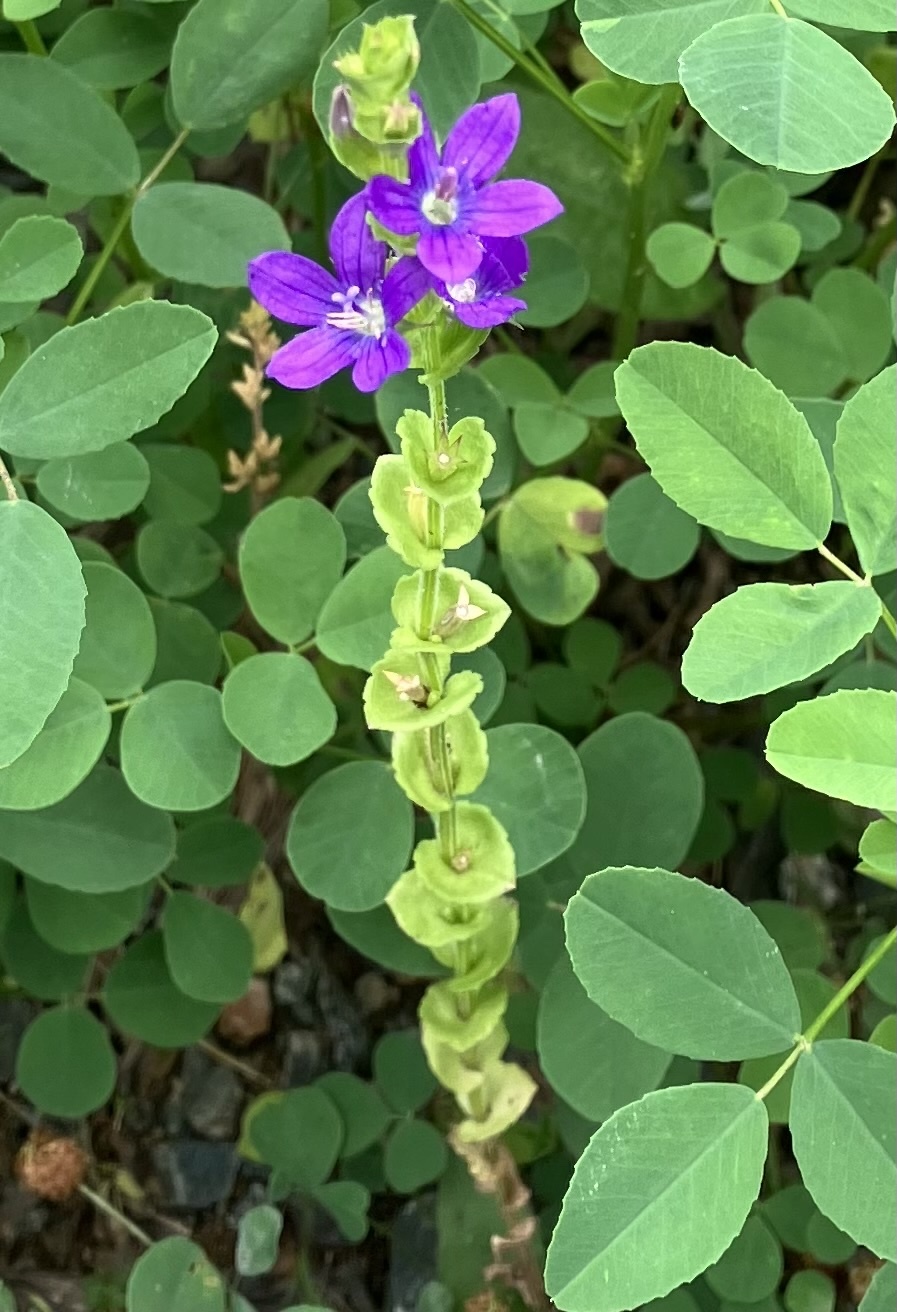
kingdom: Plantae
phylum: Tracheophyta
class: Magnoliopsida
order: Asterales
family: Campanulaceae
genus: Triodanis
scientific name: Triodanis perfoliata
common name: Clasping venus' looking-glass
